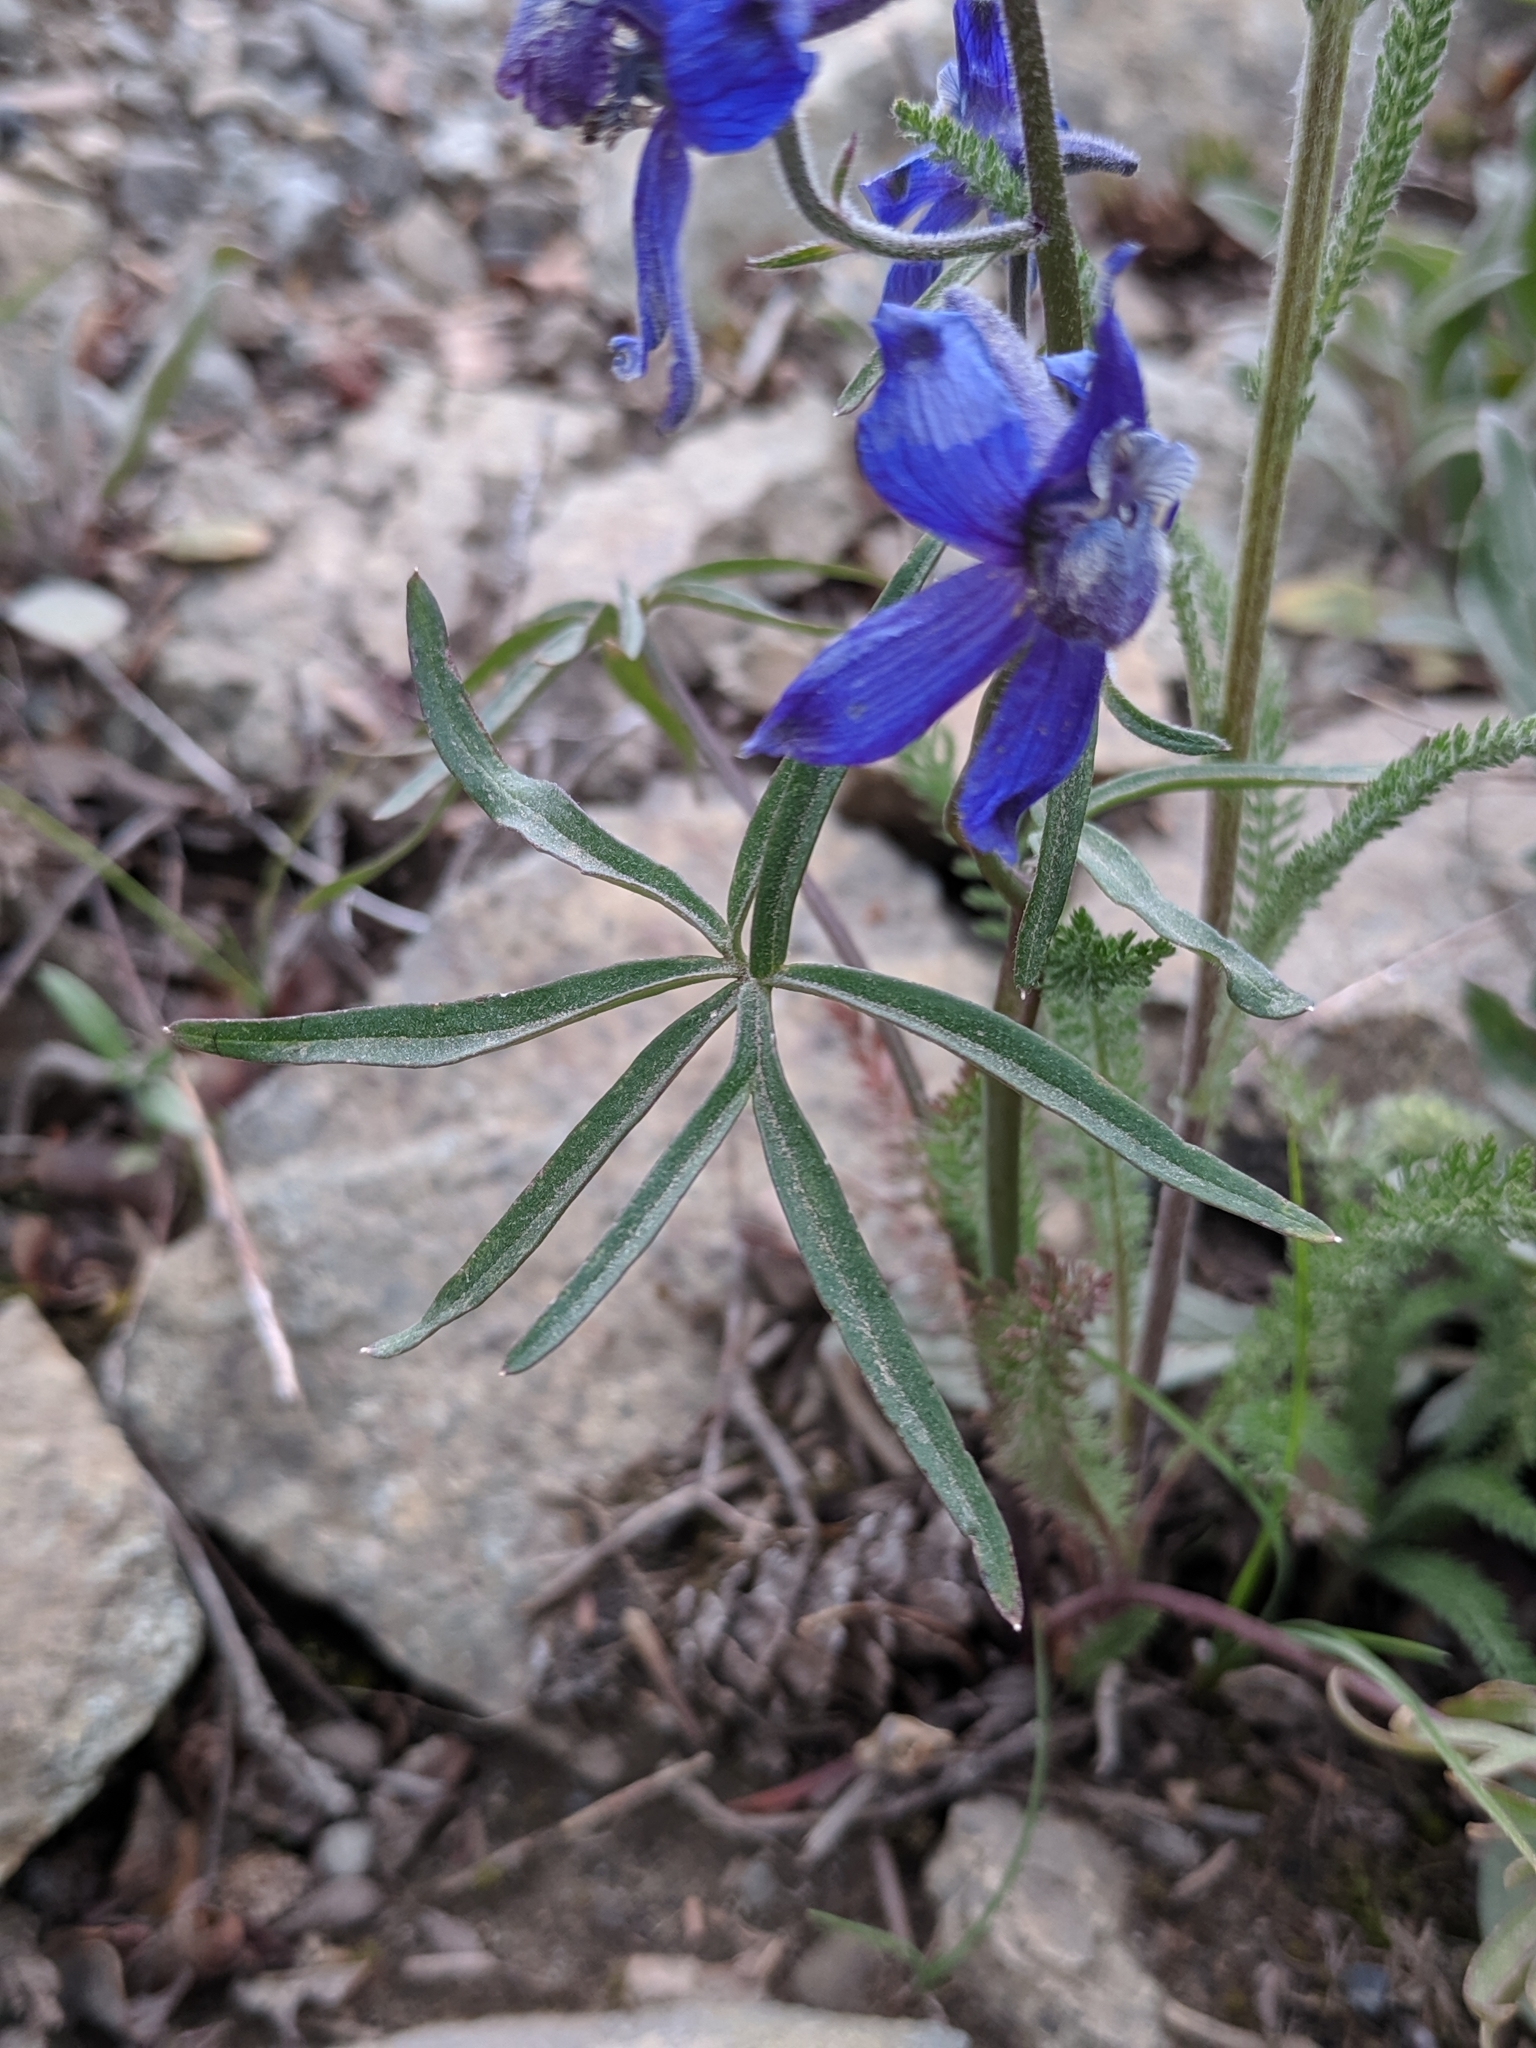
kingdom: Plantae
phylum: Tracheophyta
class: Magnoliopsida
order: Ranunculales
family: Ranunculaceae
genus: Delphinium
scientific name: Delphinium nuttallianum
